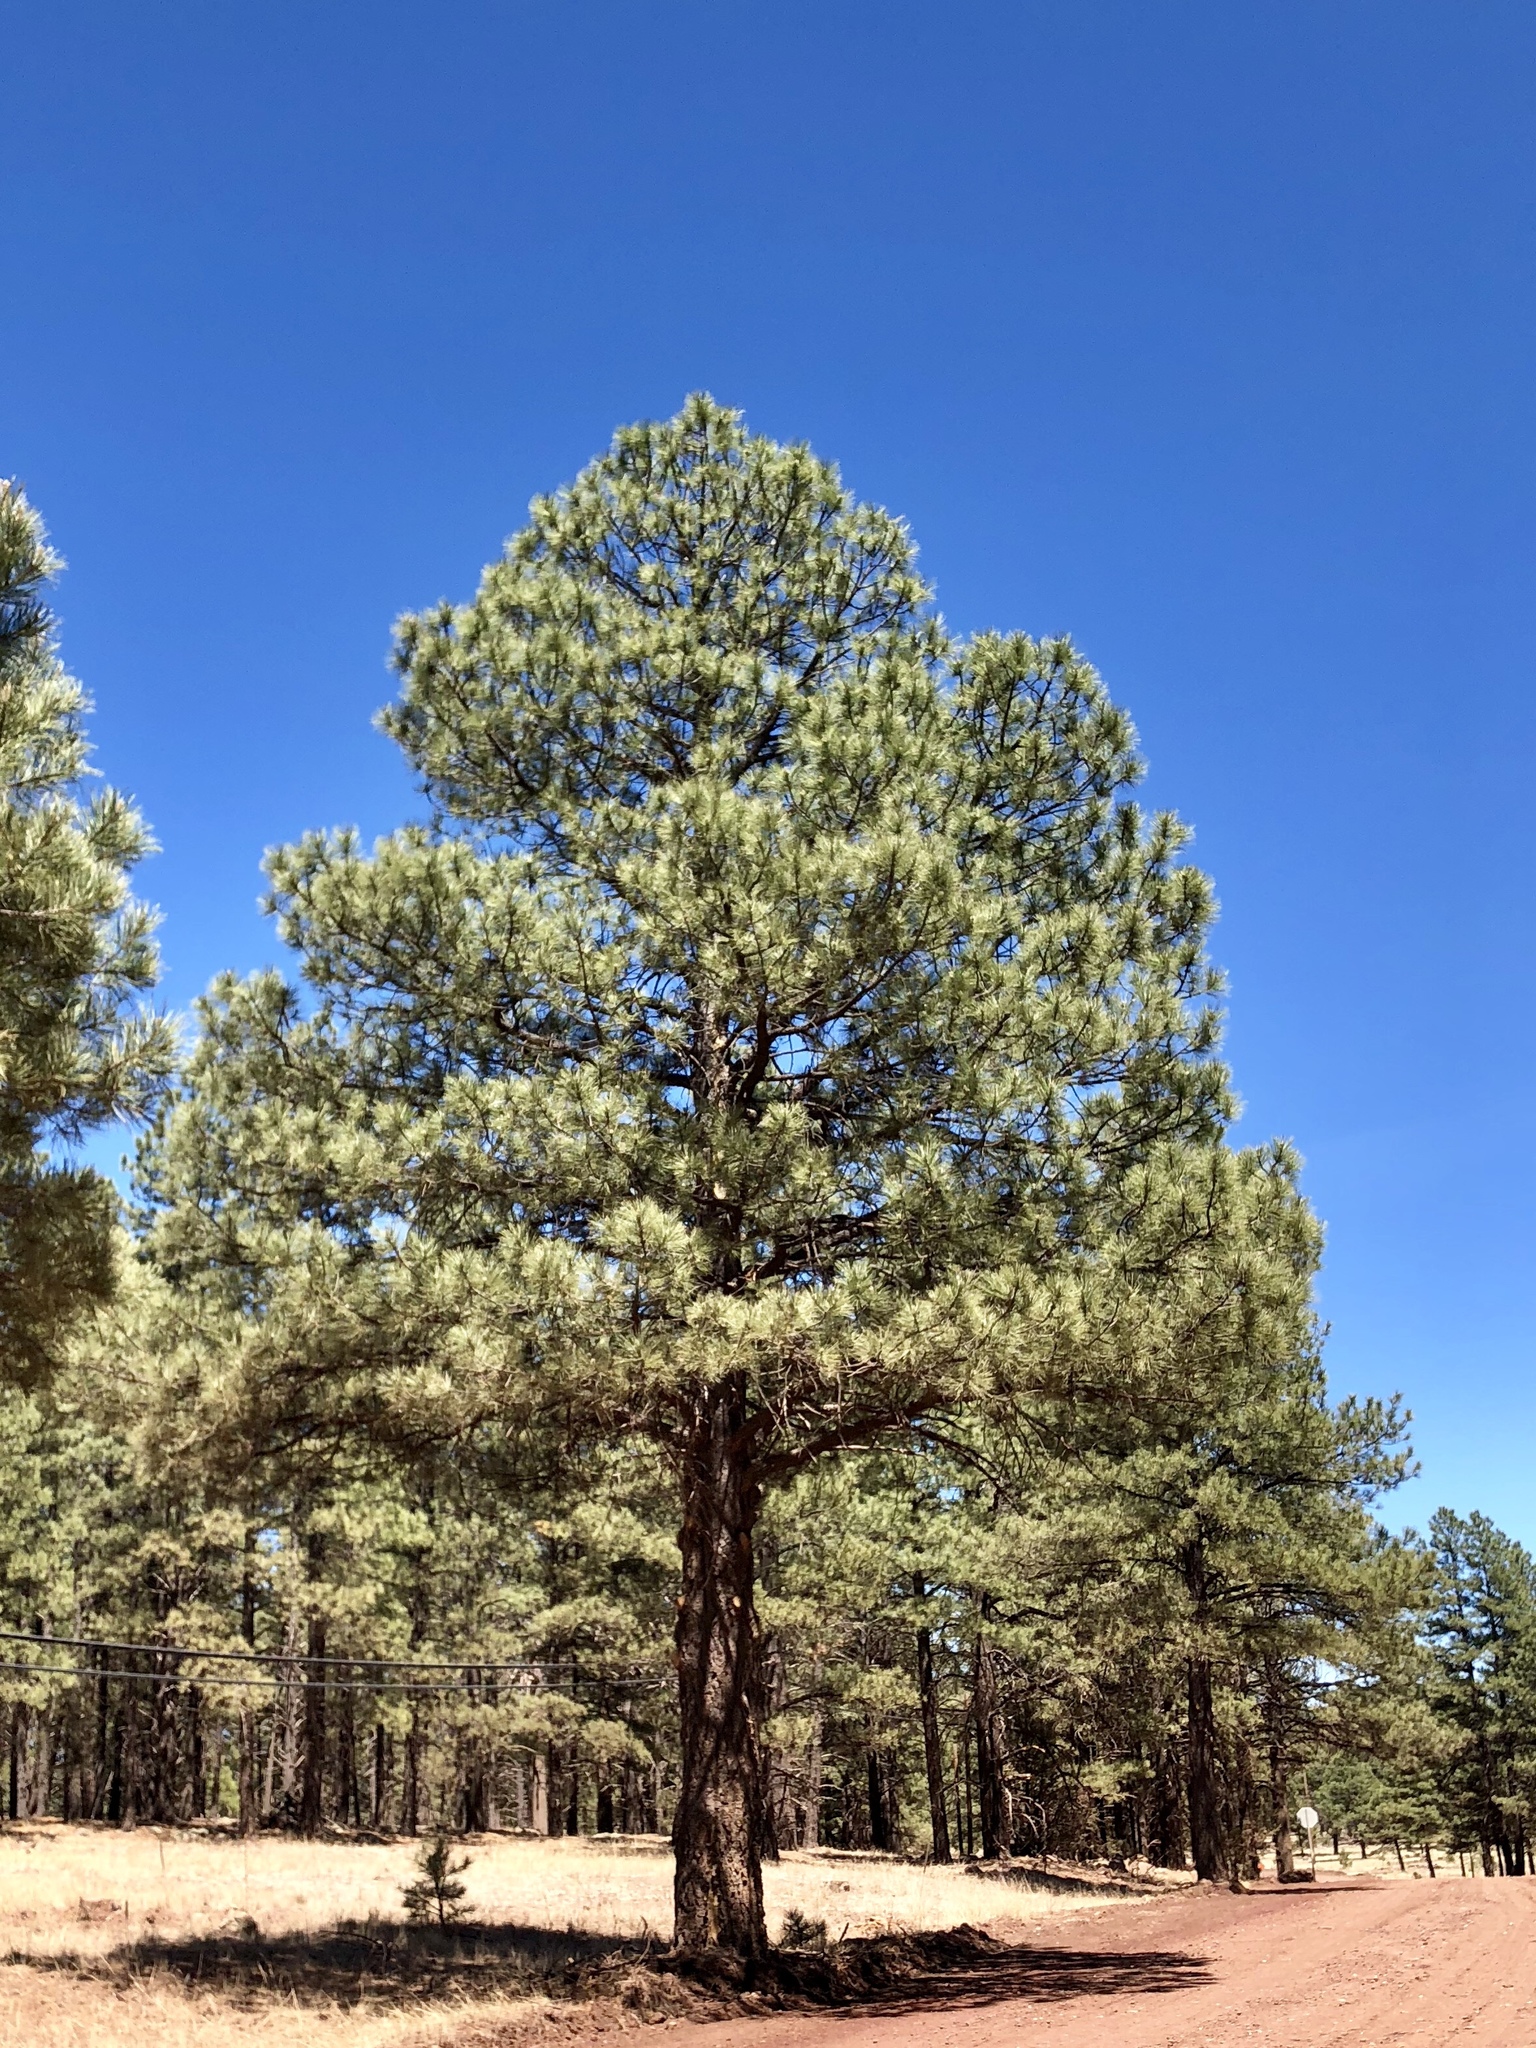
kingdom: Plantae
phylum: Tracheophyta
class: Pinopsida
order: Pinales
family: Pinaceae
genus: Pinus
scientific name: Pinus ponderosa
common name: Western yellow-pine
